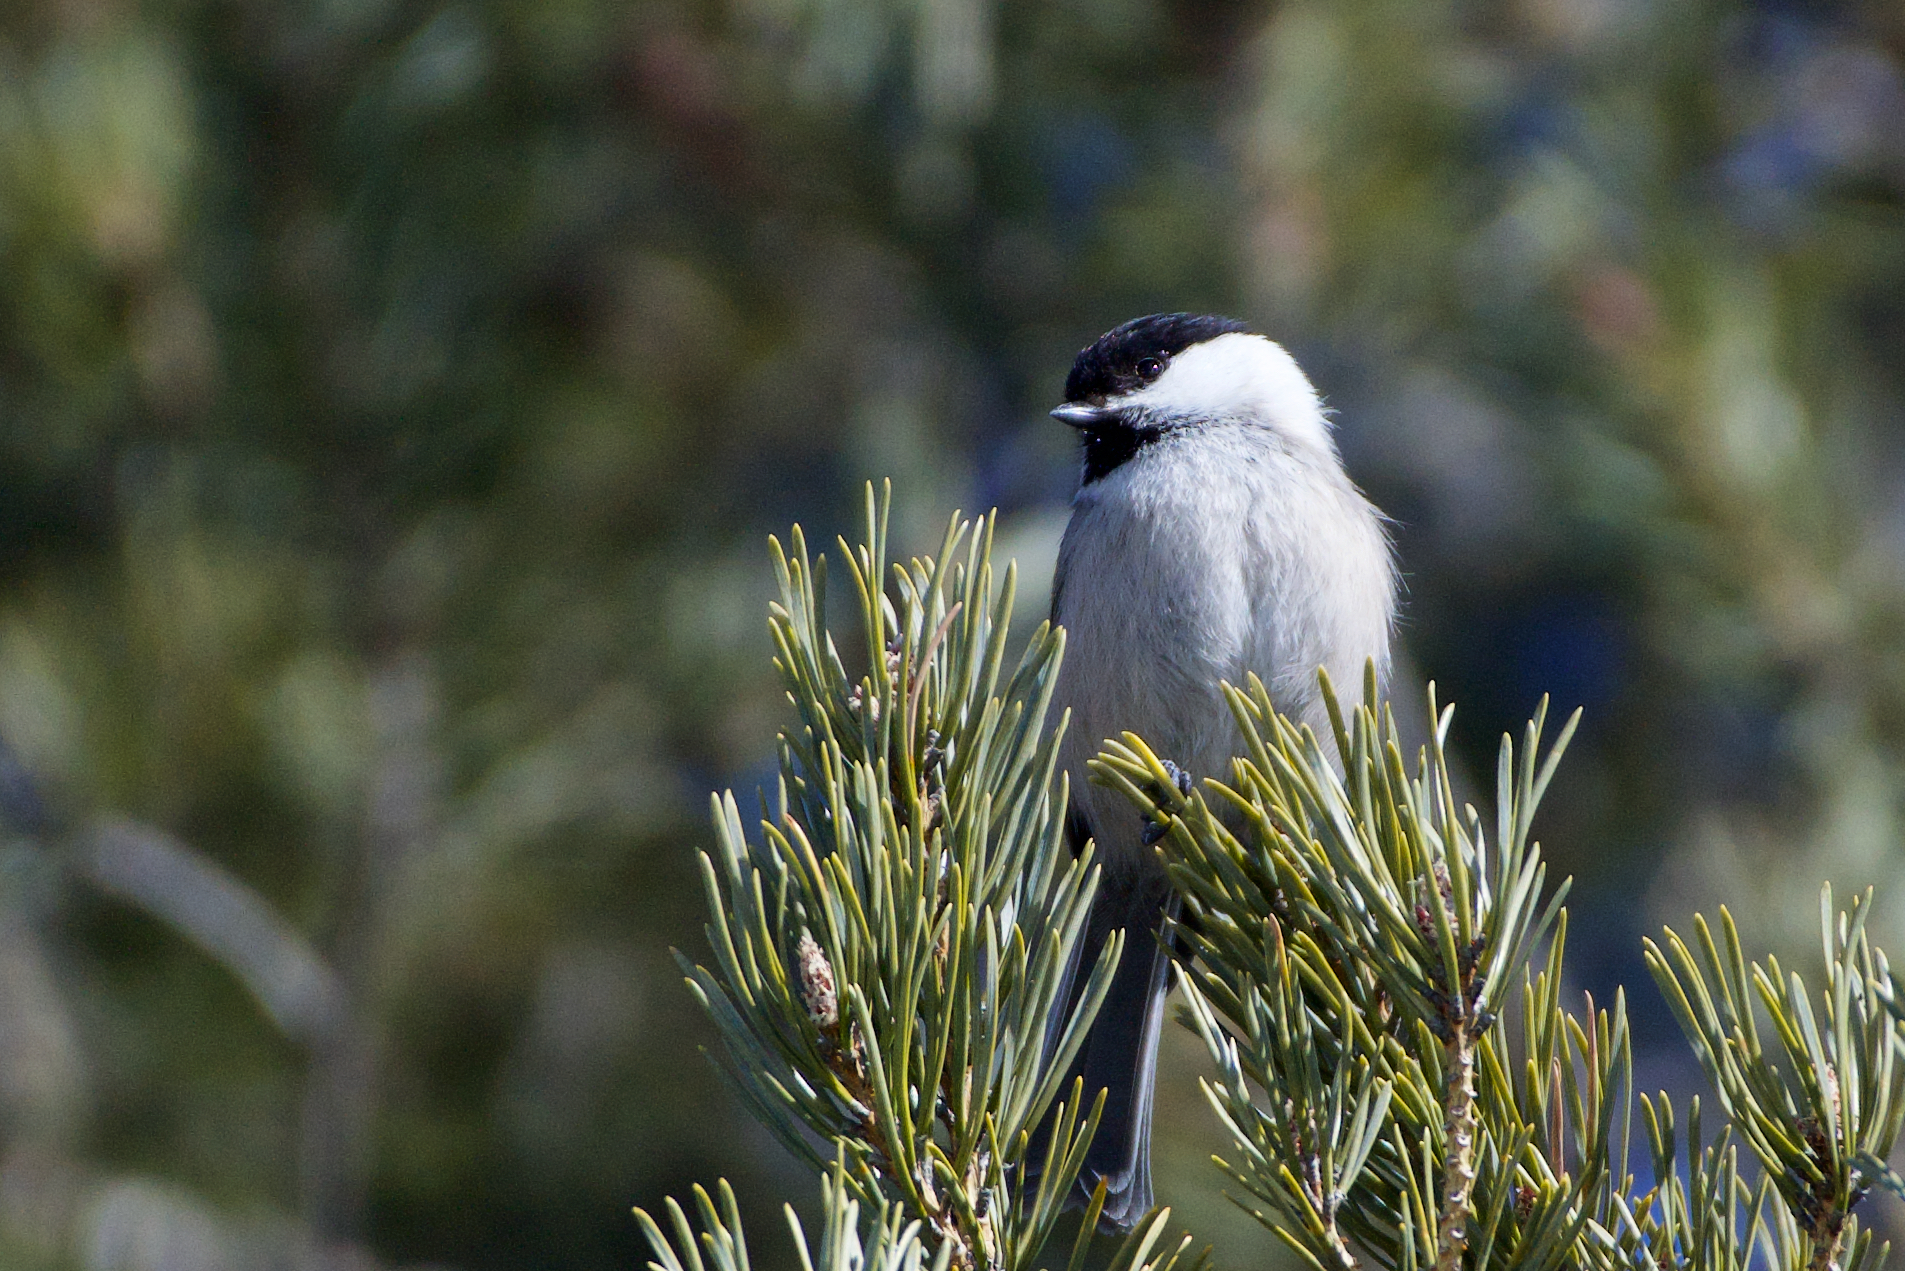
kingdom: Animalia
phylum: Chordata
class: Aves
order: Passeriformes
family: Paridae
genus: Poecile
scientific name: Poecile montanus
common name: Willow tit
